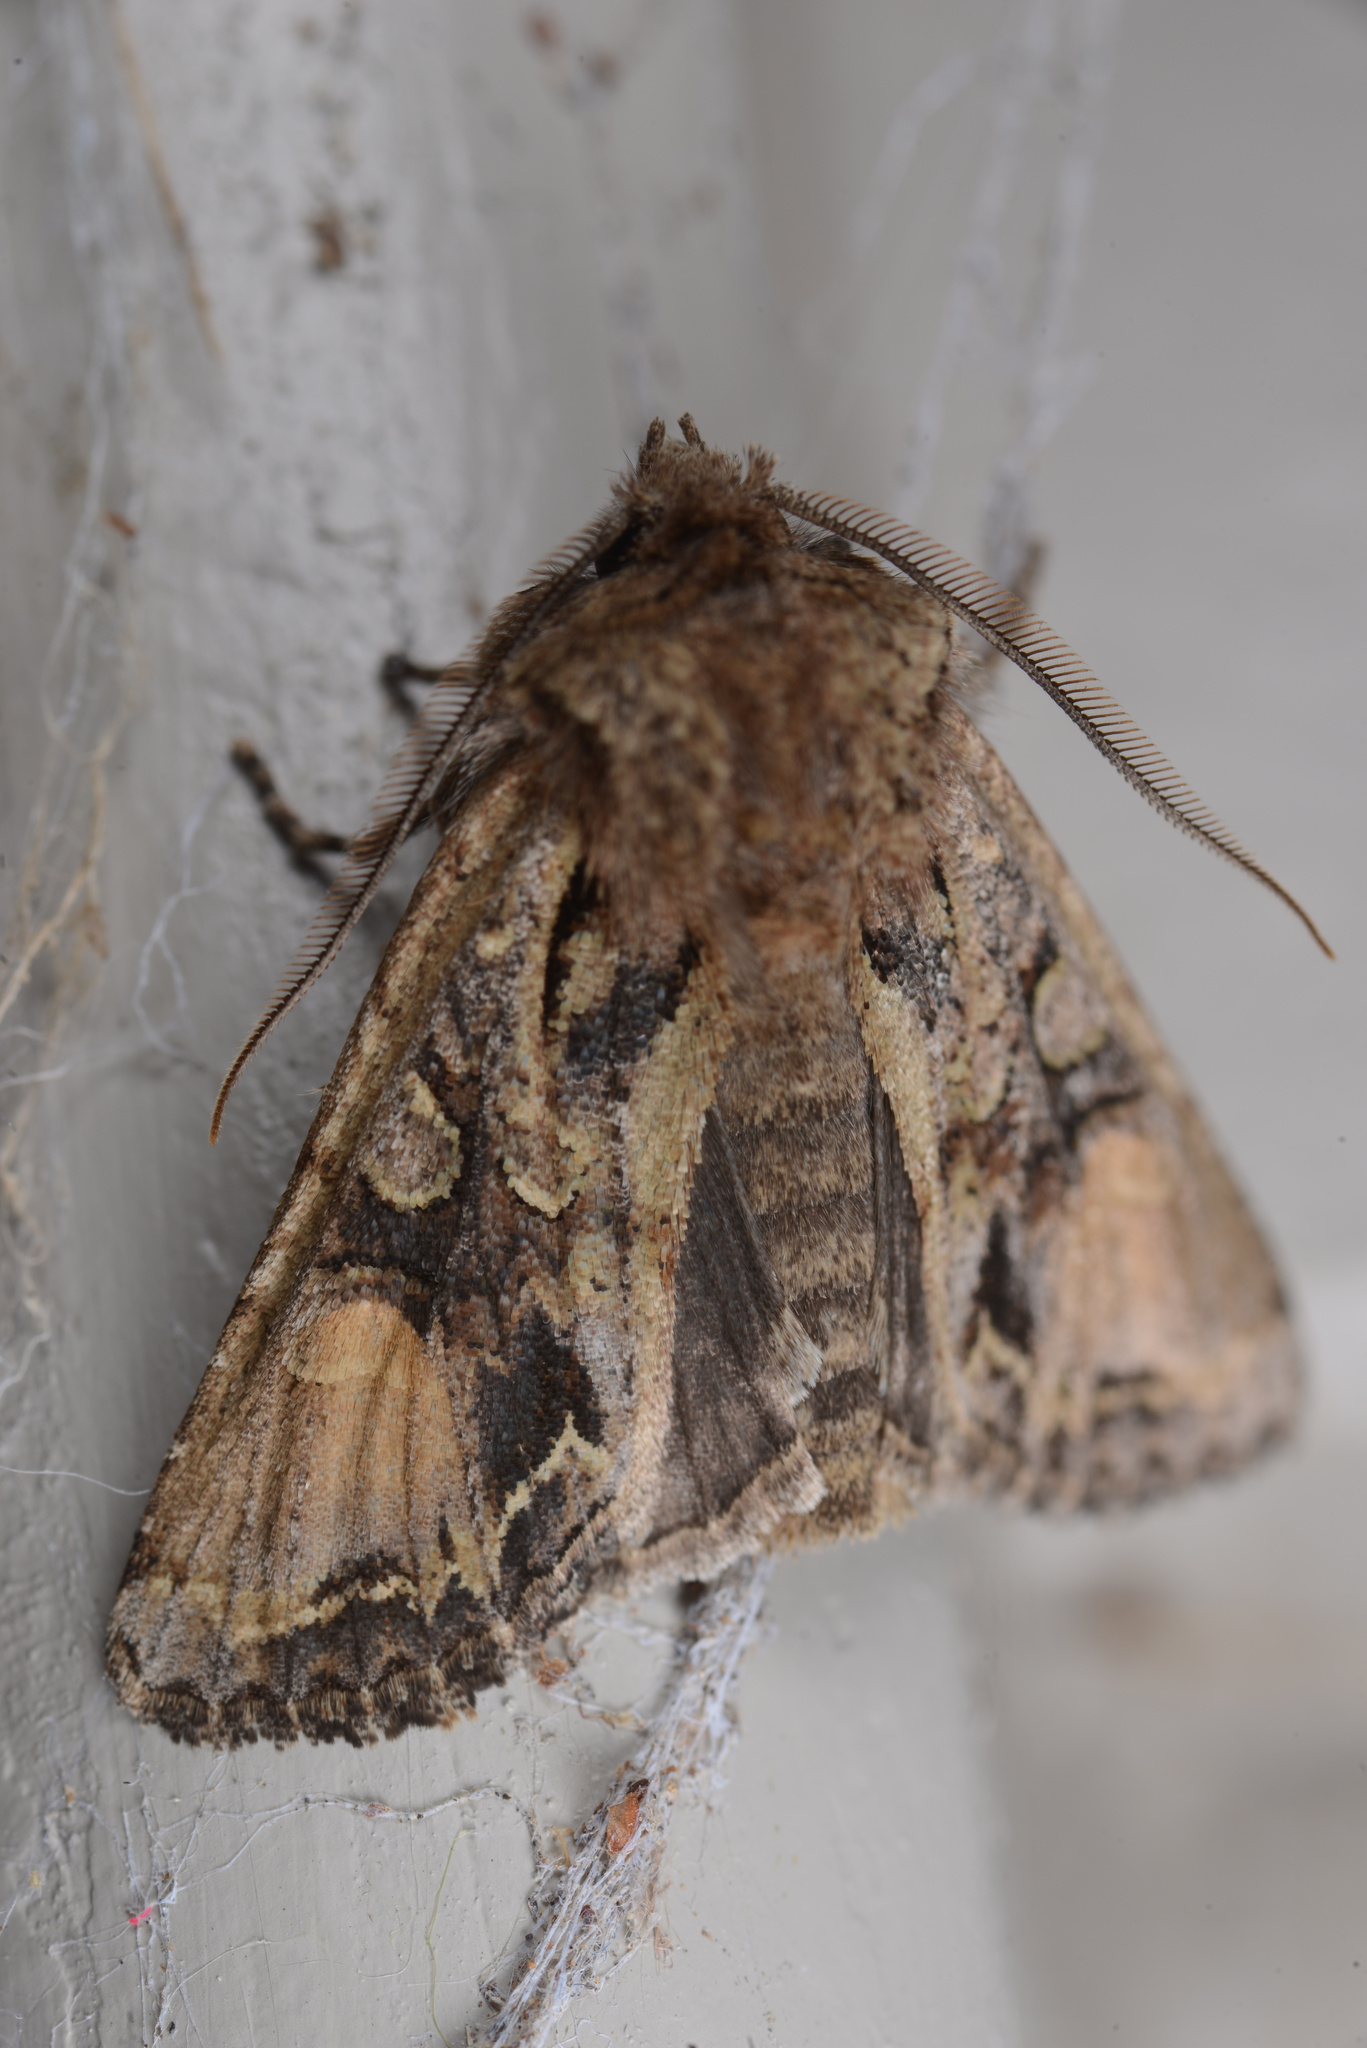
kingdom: Animalia
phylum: Arthropoda
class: Insecta
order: Lepidoptera
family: Noctuidae
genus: Ichneutica
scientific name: Ichneutica
